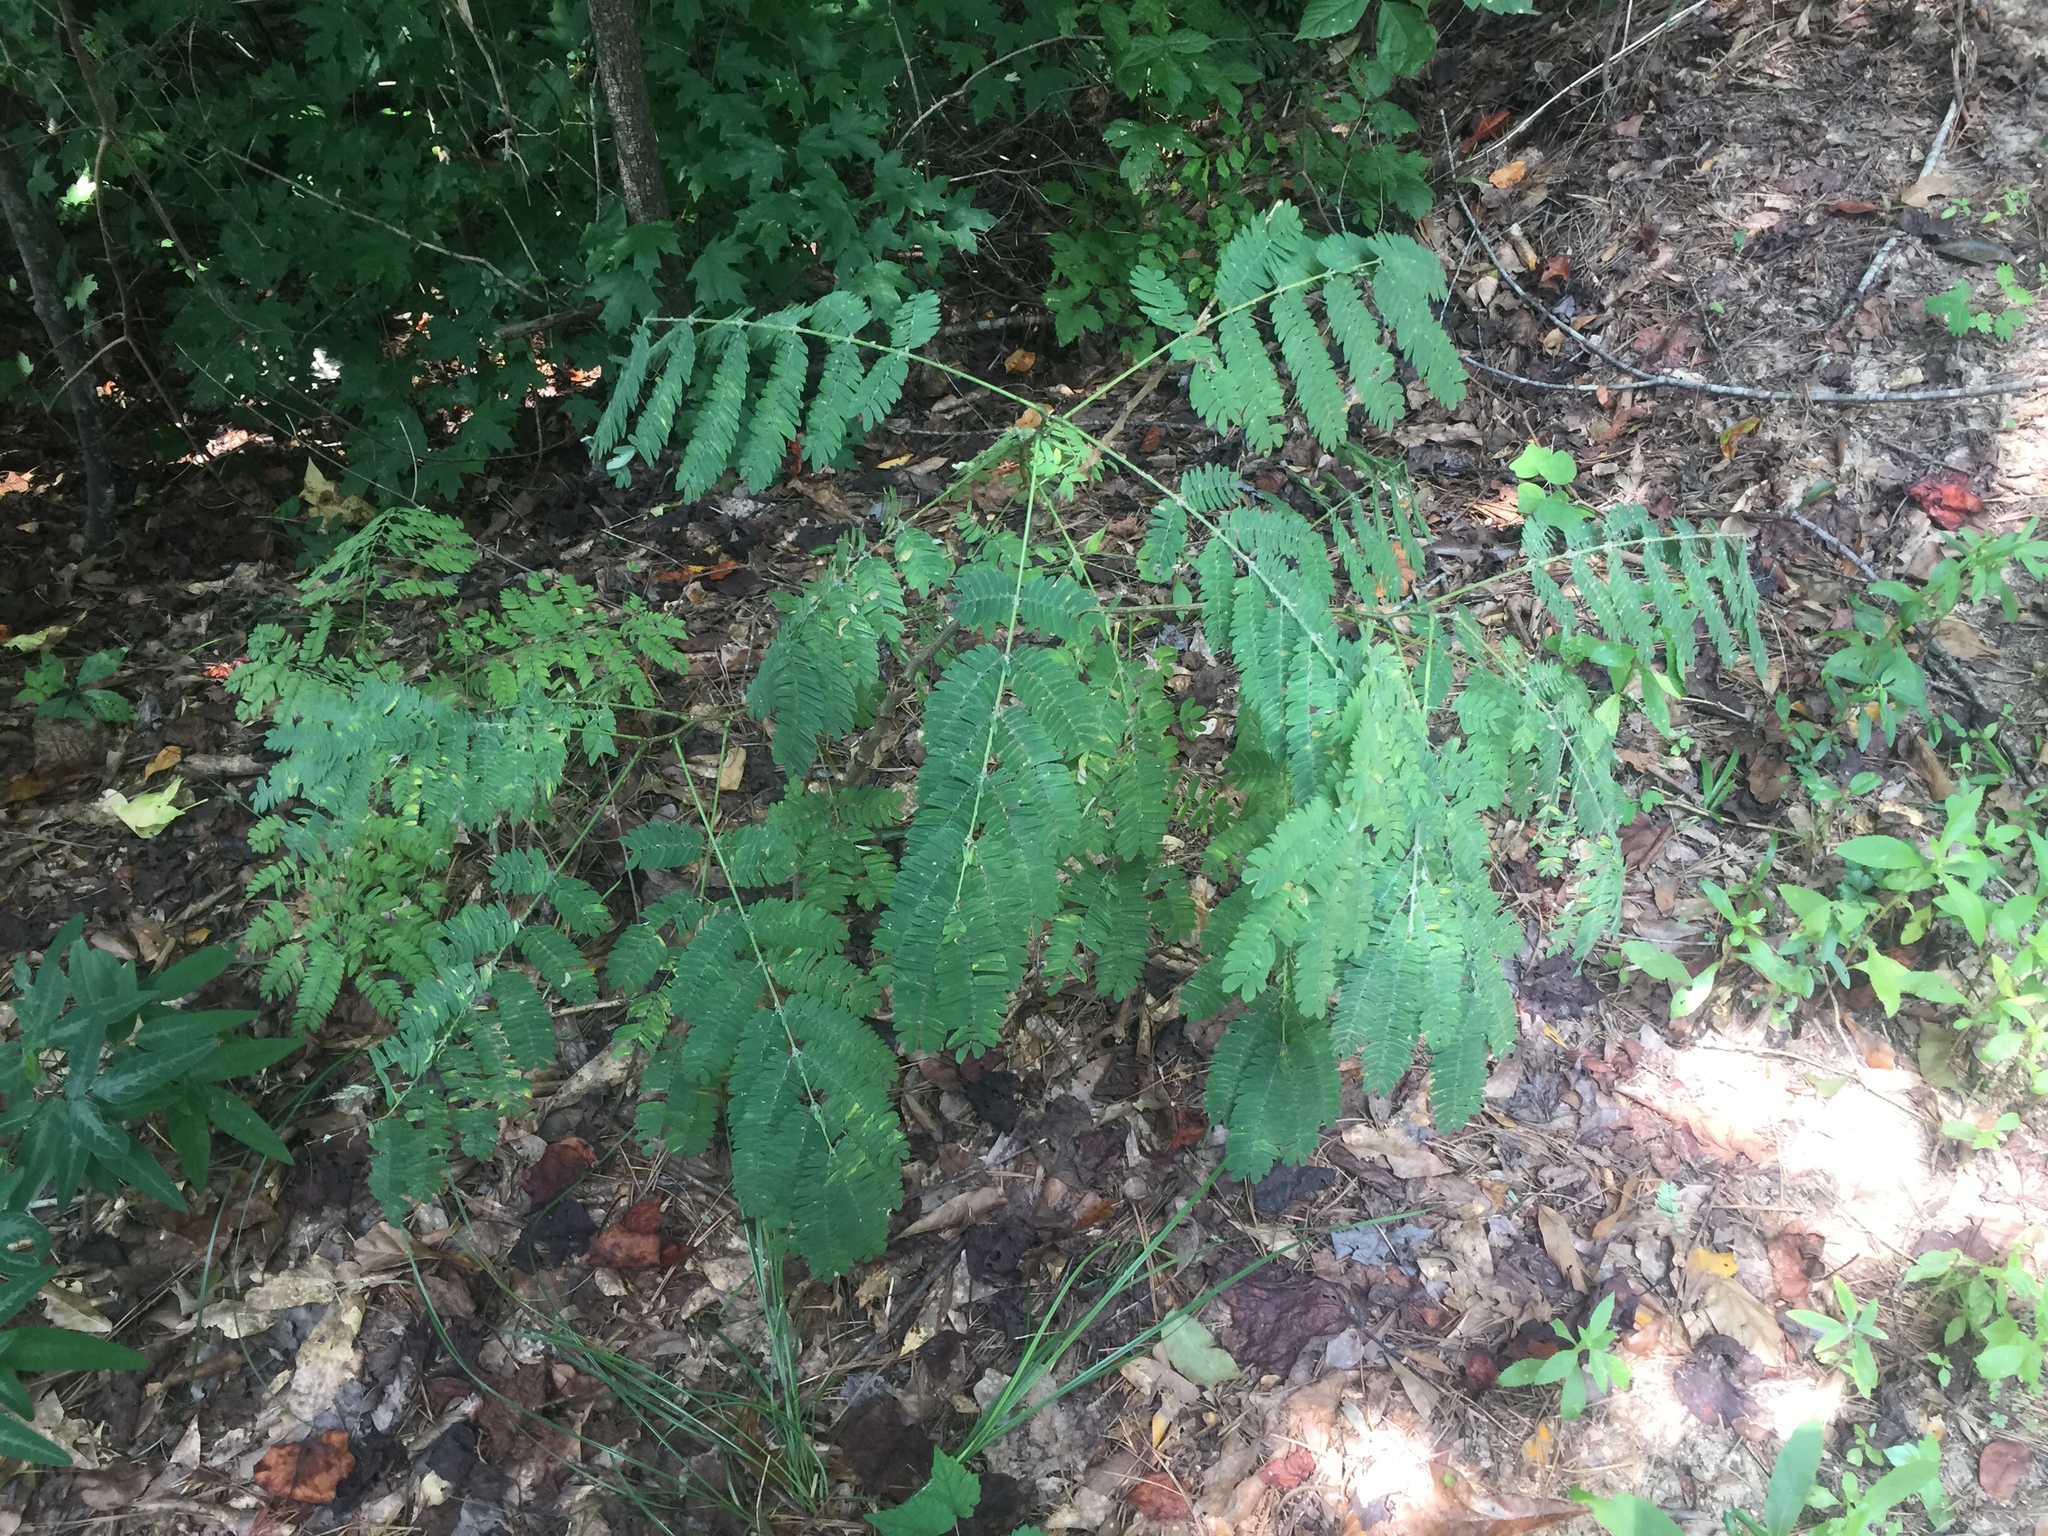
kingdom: Plantae
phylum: Tracheophyta
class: Magnoliopsida
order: Fabales
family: Fabaceae
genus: Albizia
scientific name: Albizia julibrissin
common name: Silktree
